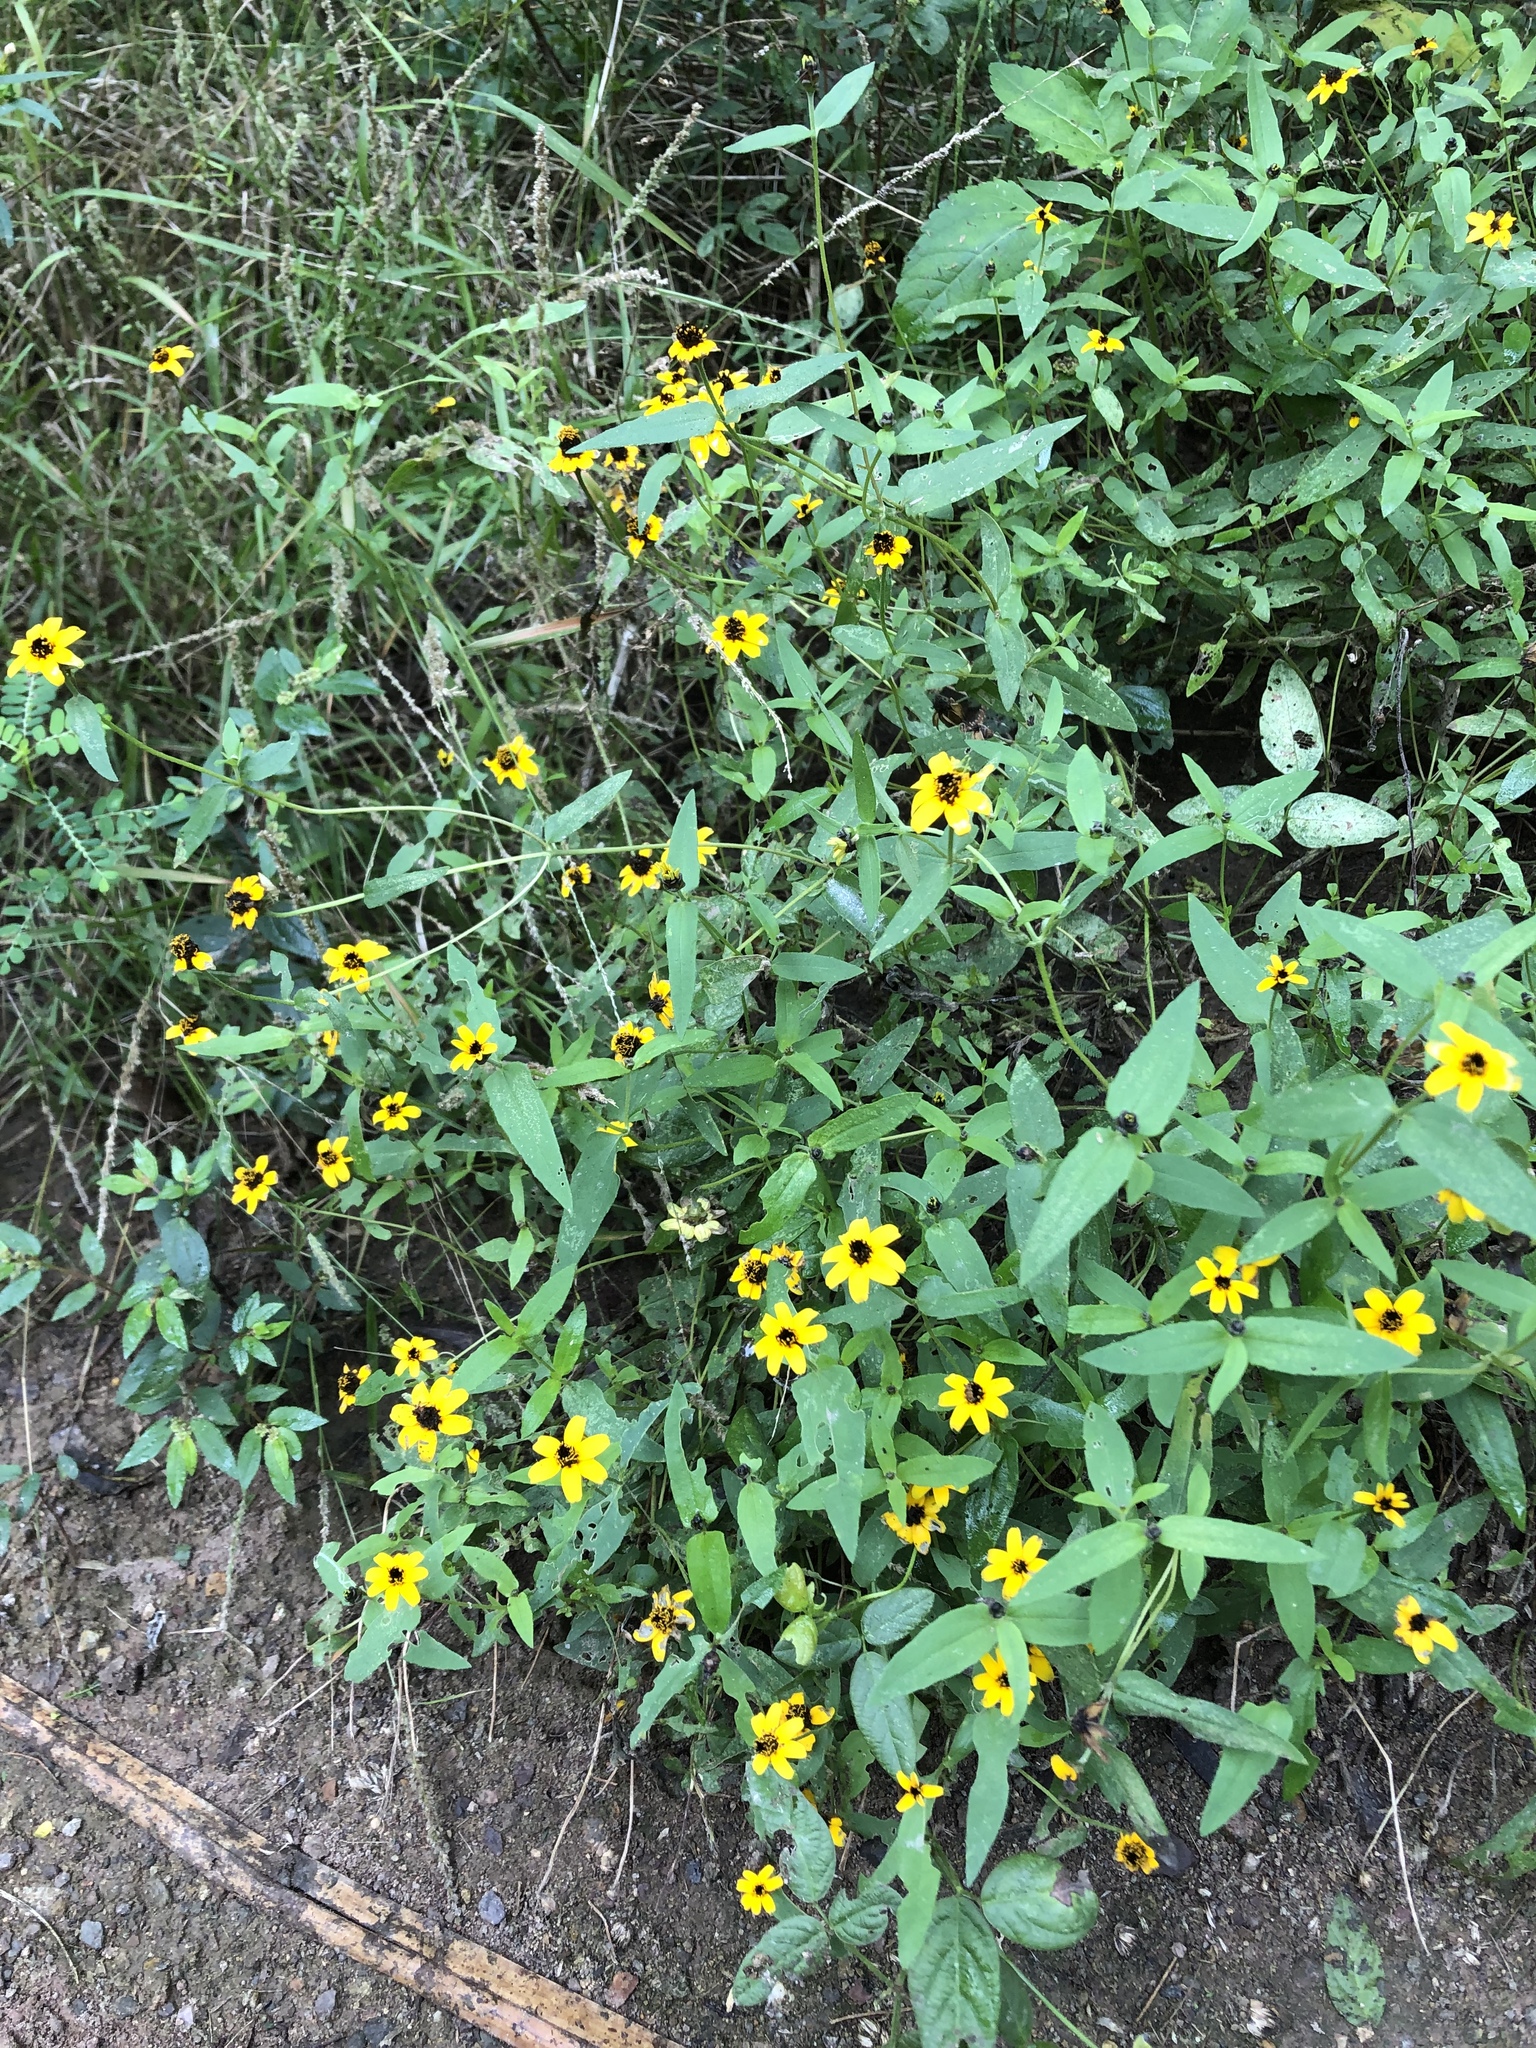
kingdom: Plantae
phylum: Tracheophyta
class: Magnoliopsida
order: Asterales
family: Asteraceae
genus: Zinnia
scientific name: Zinnia maritima
